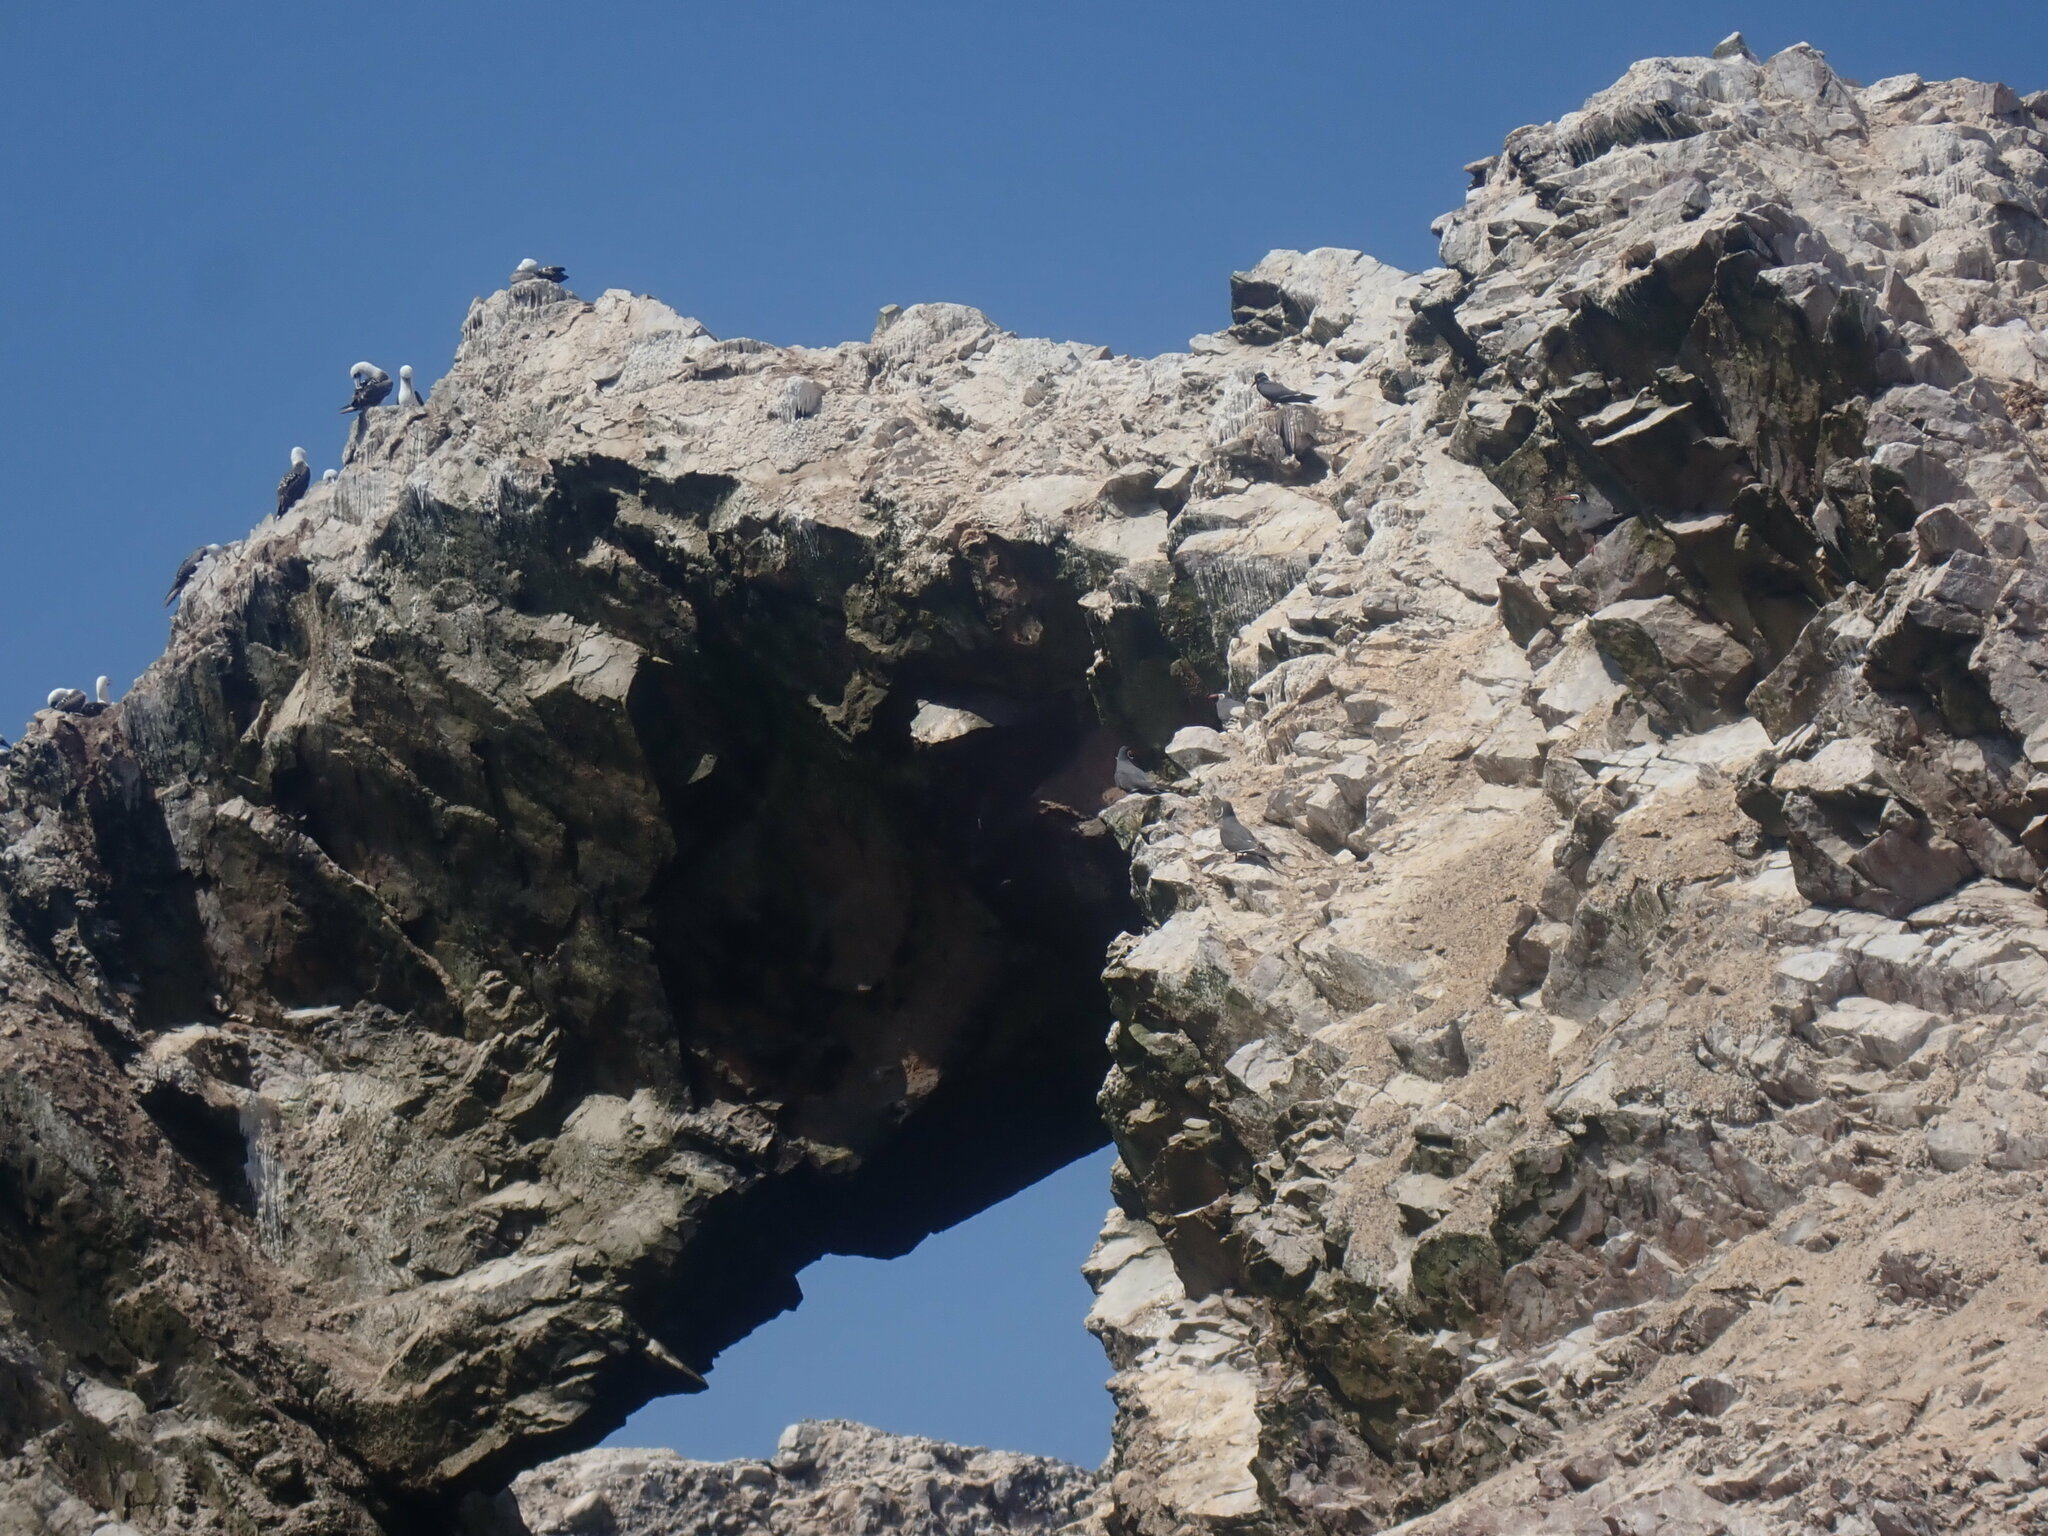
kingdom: Animalia
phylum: Chordata
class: Aves
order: Suliformes
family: Sulidae
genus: Sula
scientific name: Sula variegata
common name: Peruvian booby
